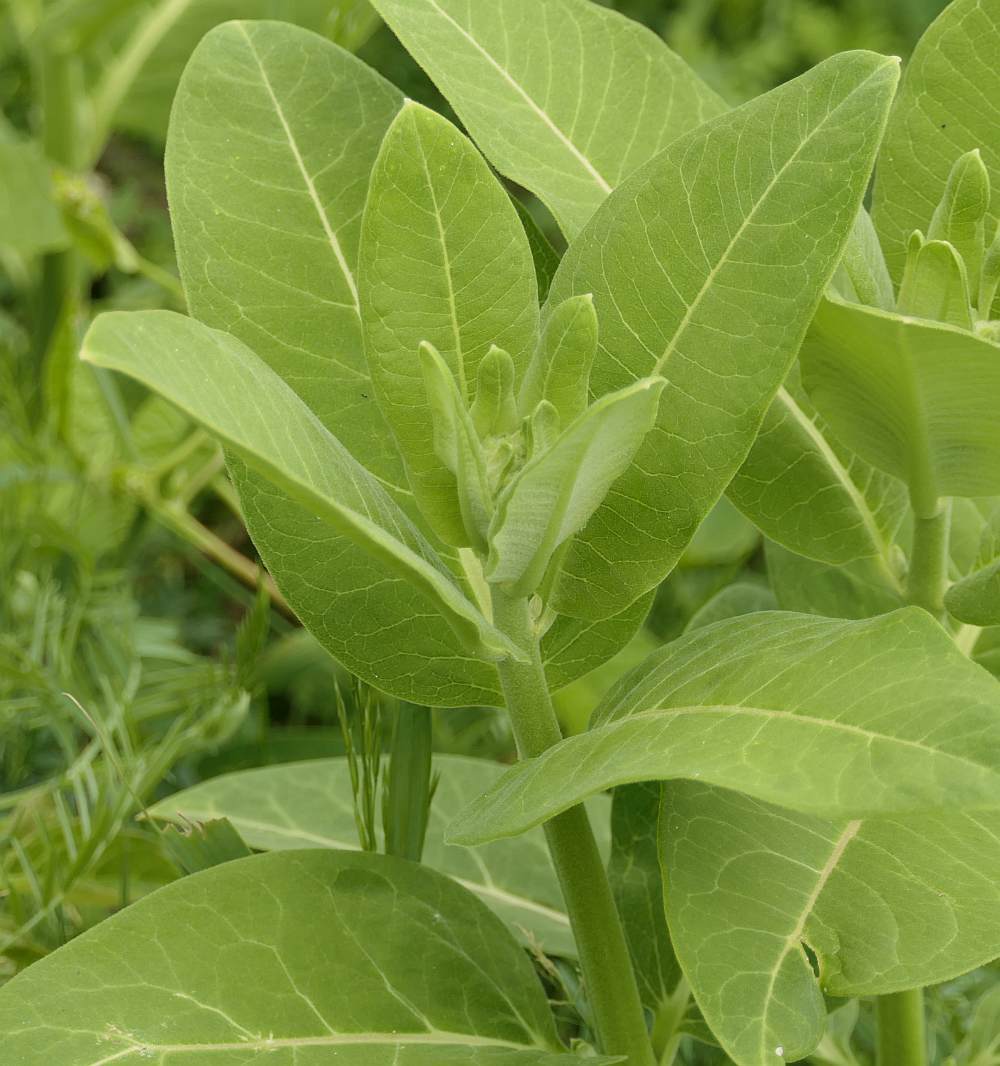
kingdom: Plantae
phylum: Tracheophyta
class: Magnoliopsida
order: Gentianales
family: Apocynaceae
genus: Asclepias
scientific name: Asclepias syriaca
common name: Common milkweed
